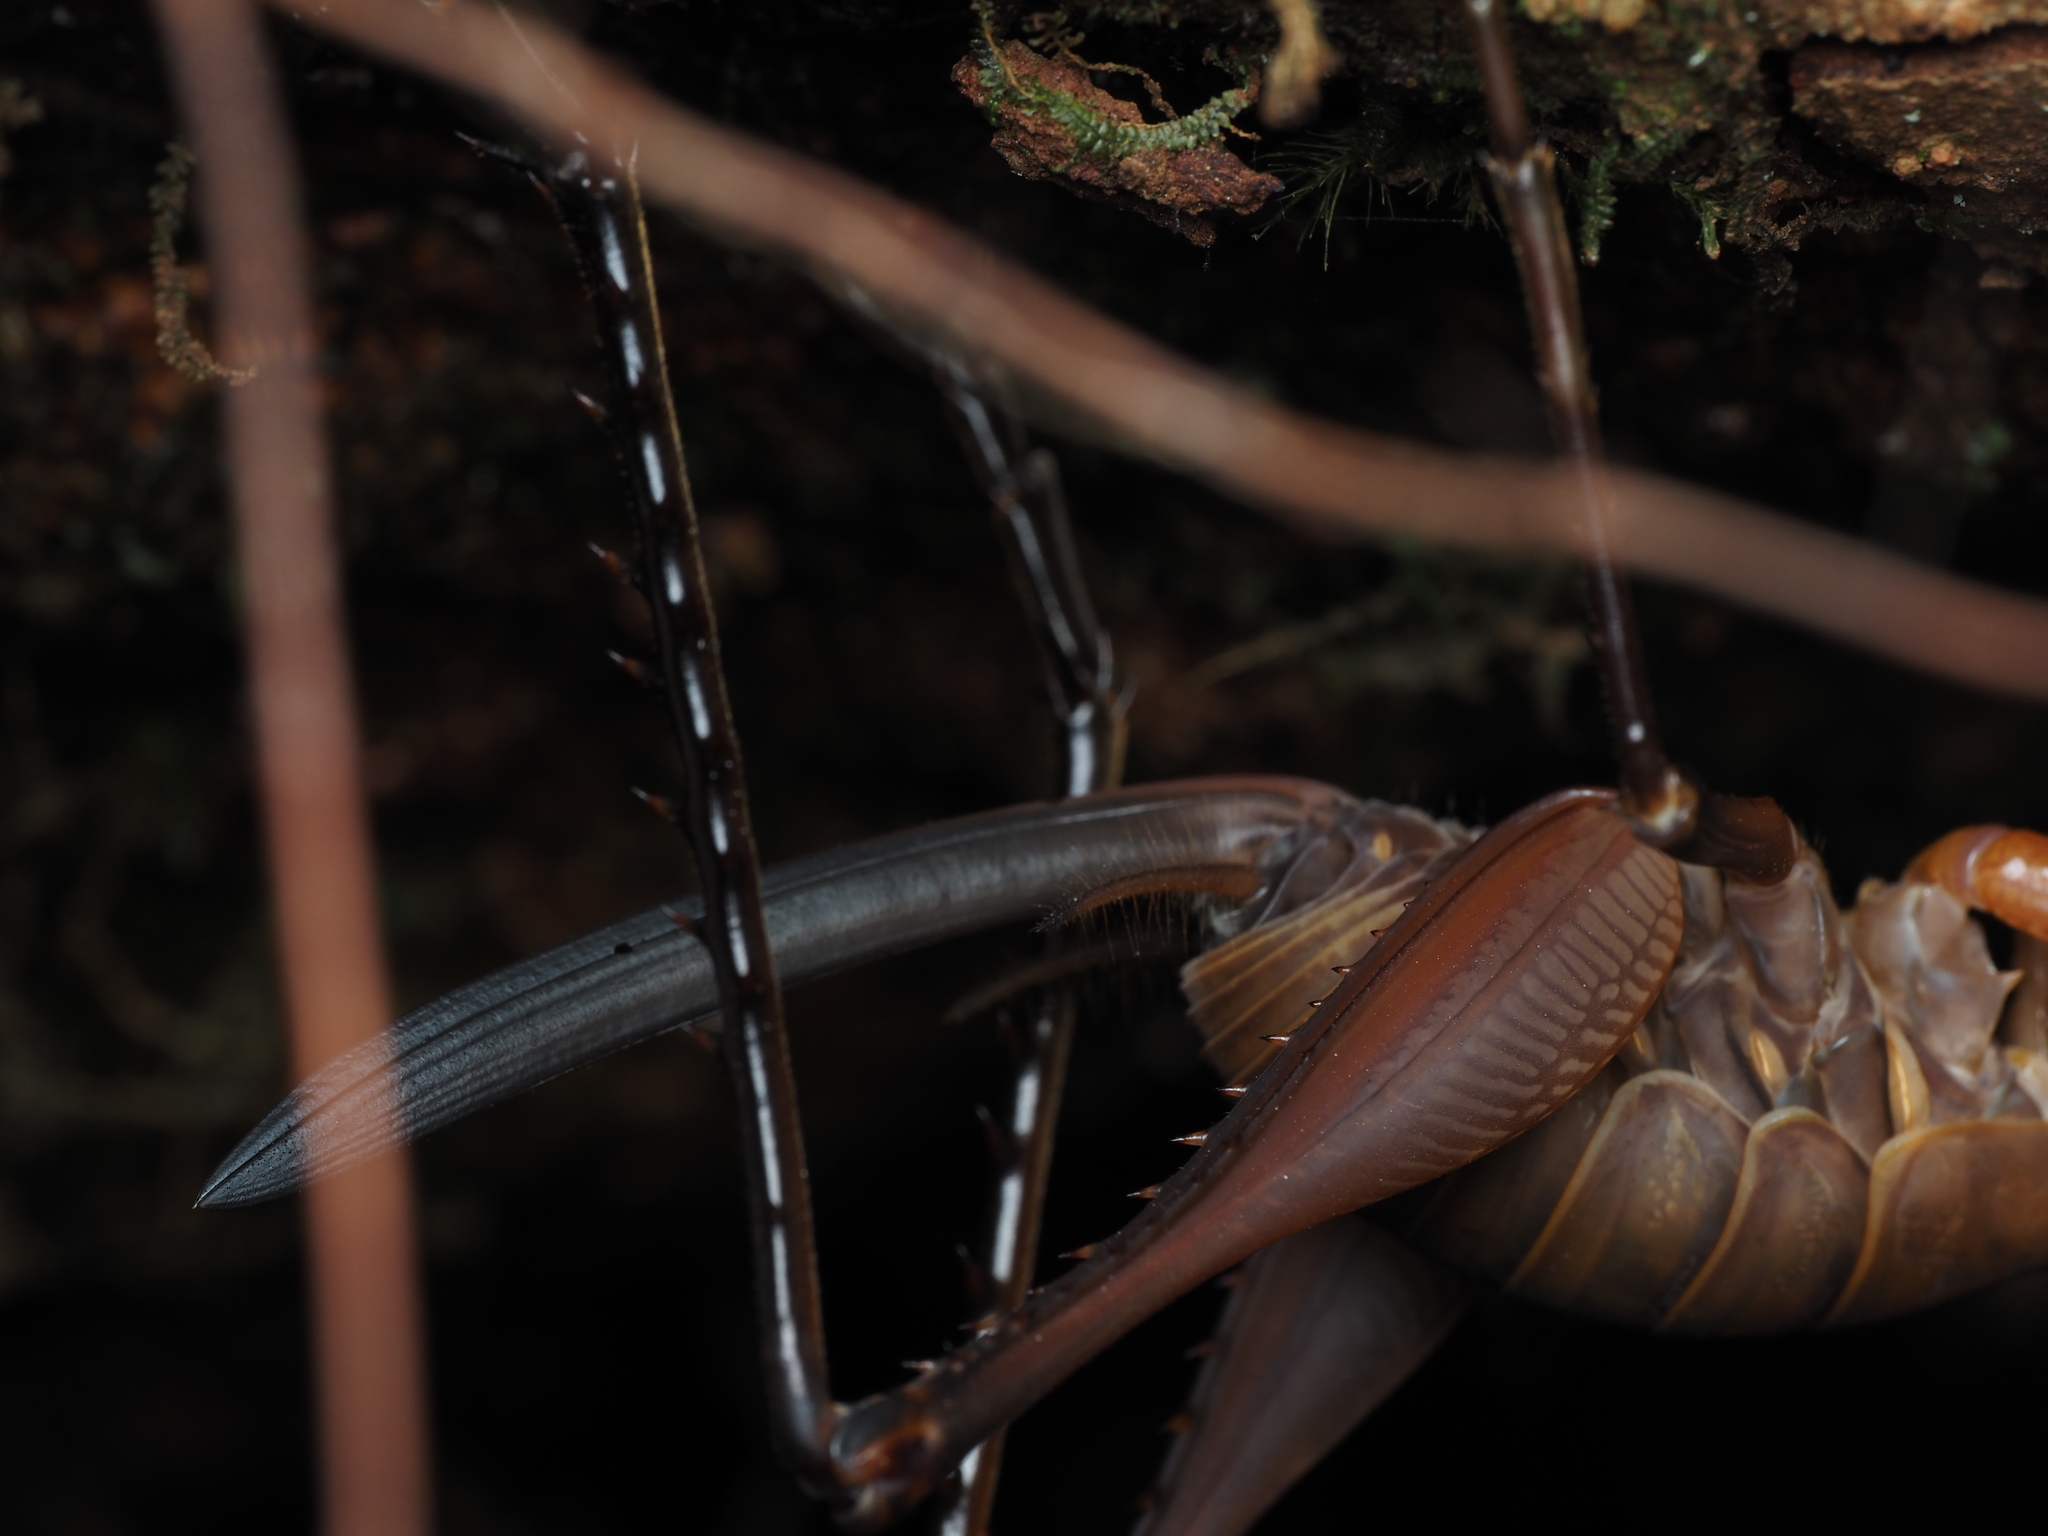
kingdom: Animalia
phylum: Arthropoda
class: Insecta
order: Orthoptera
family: Rhaphidophoridae
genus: Pachyrhamma
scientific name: Pachyrhamma longipes
